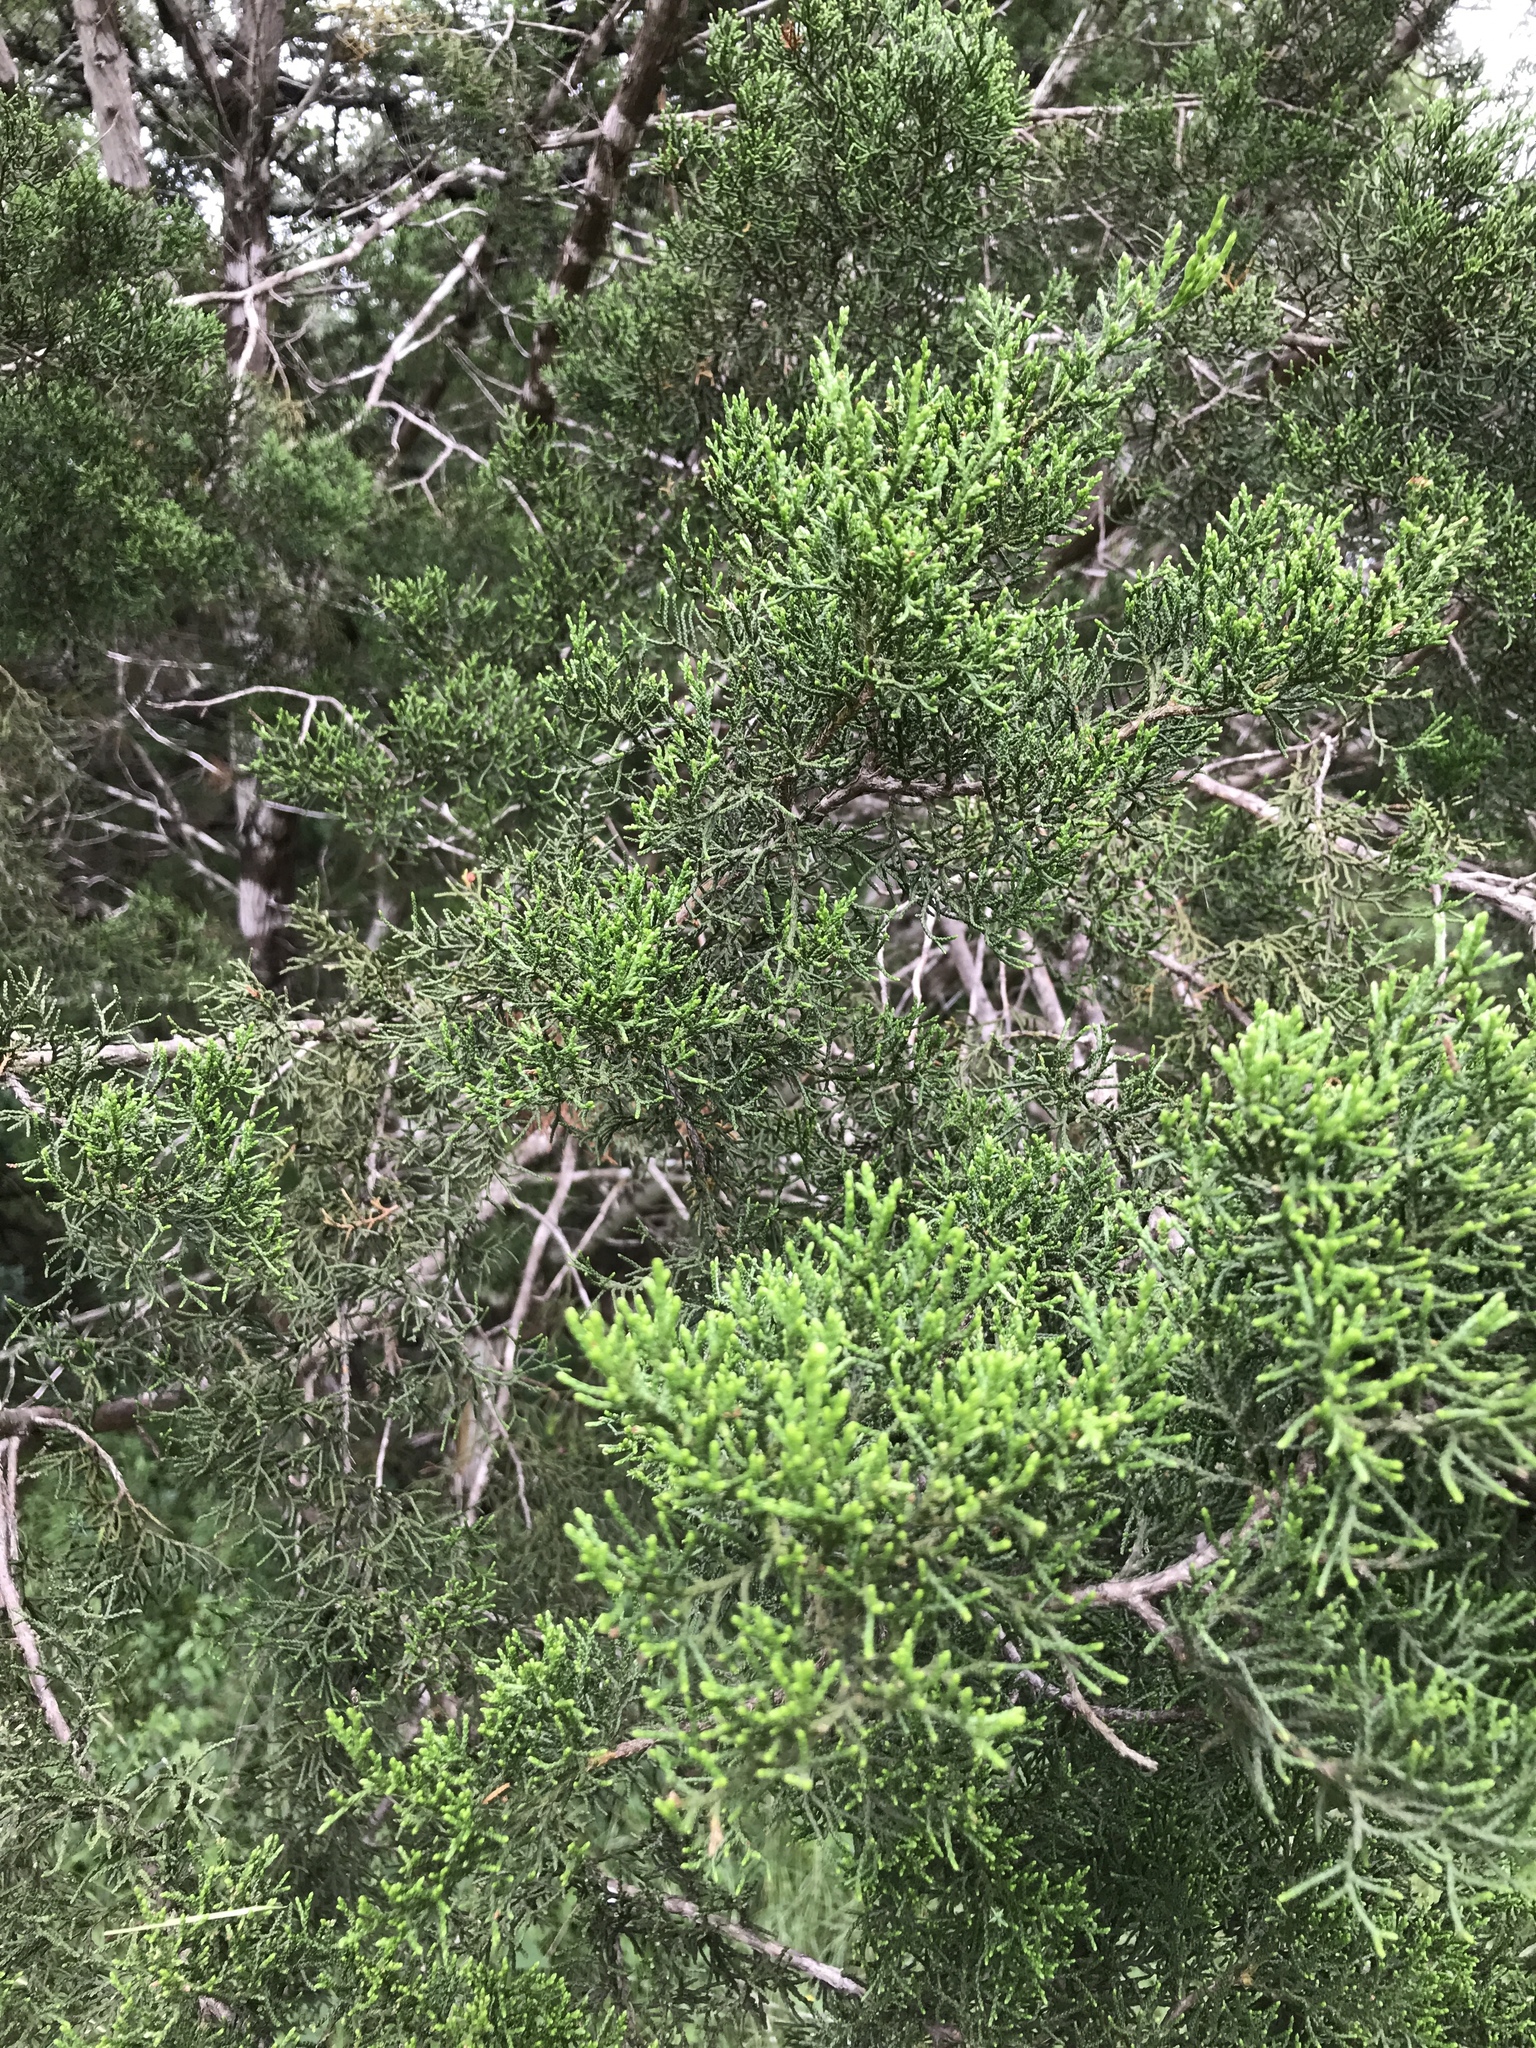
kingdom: Plantae
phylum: Tracheophyta
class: Pinopsida
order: Pinales
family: Cupressaceae
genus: Juniperus
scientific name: Juniperus ashei
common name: Mexican juniper
